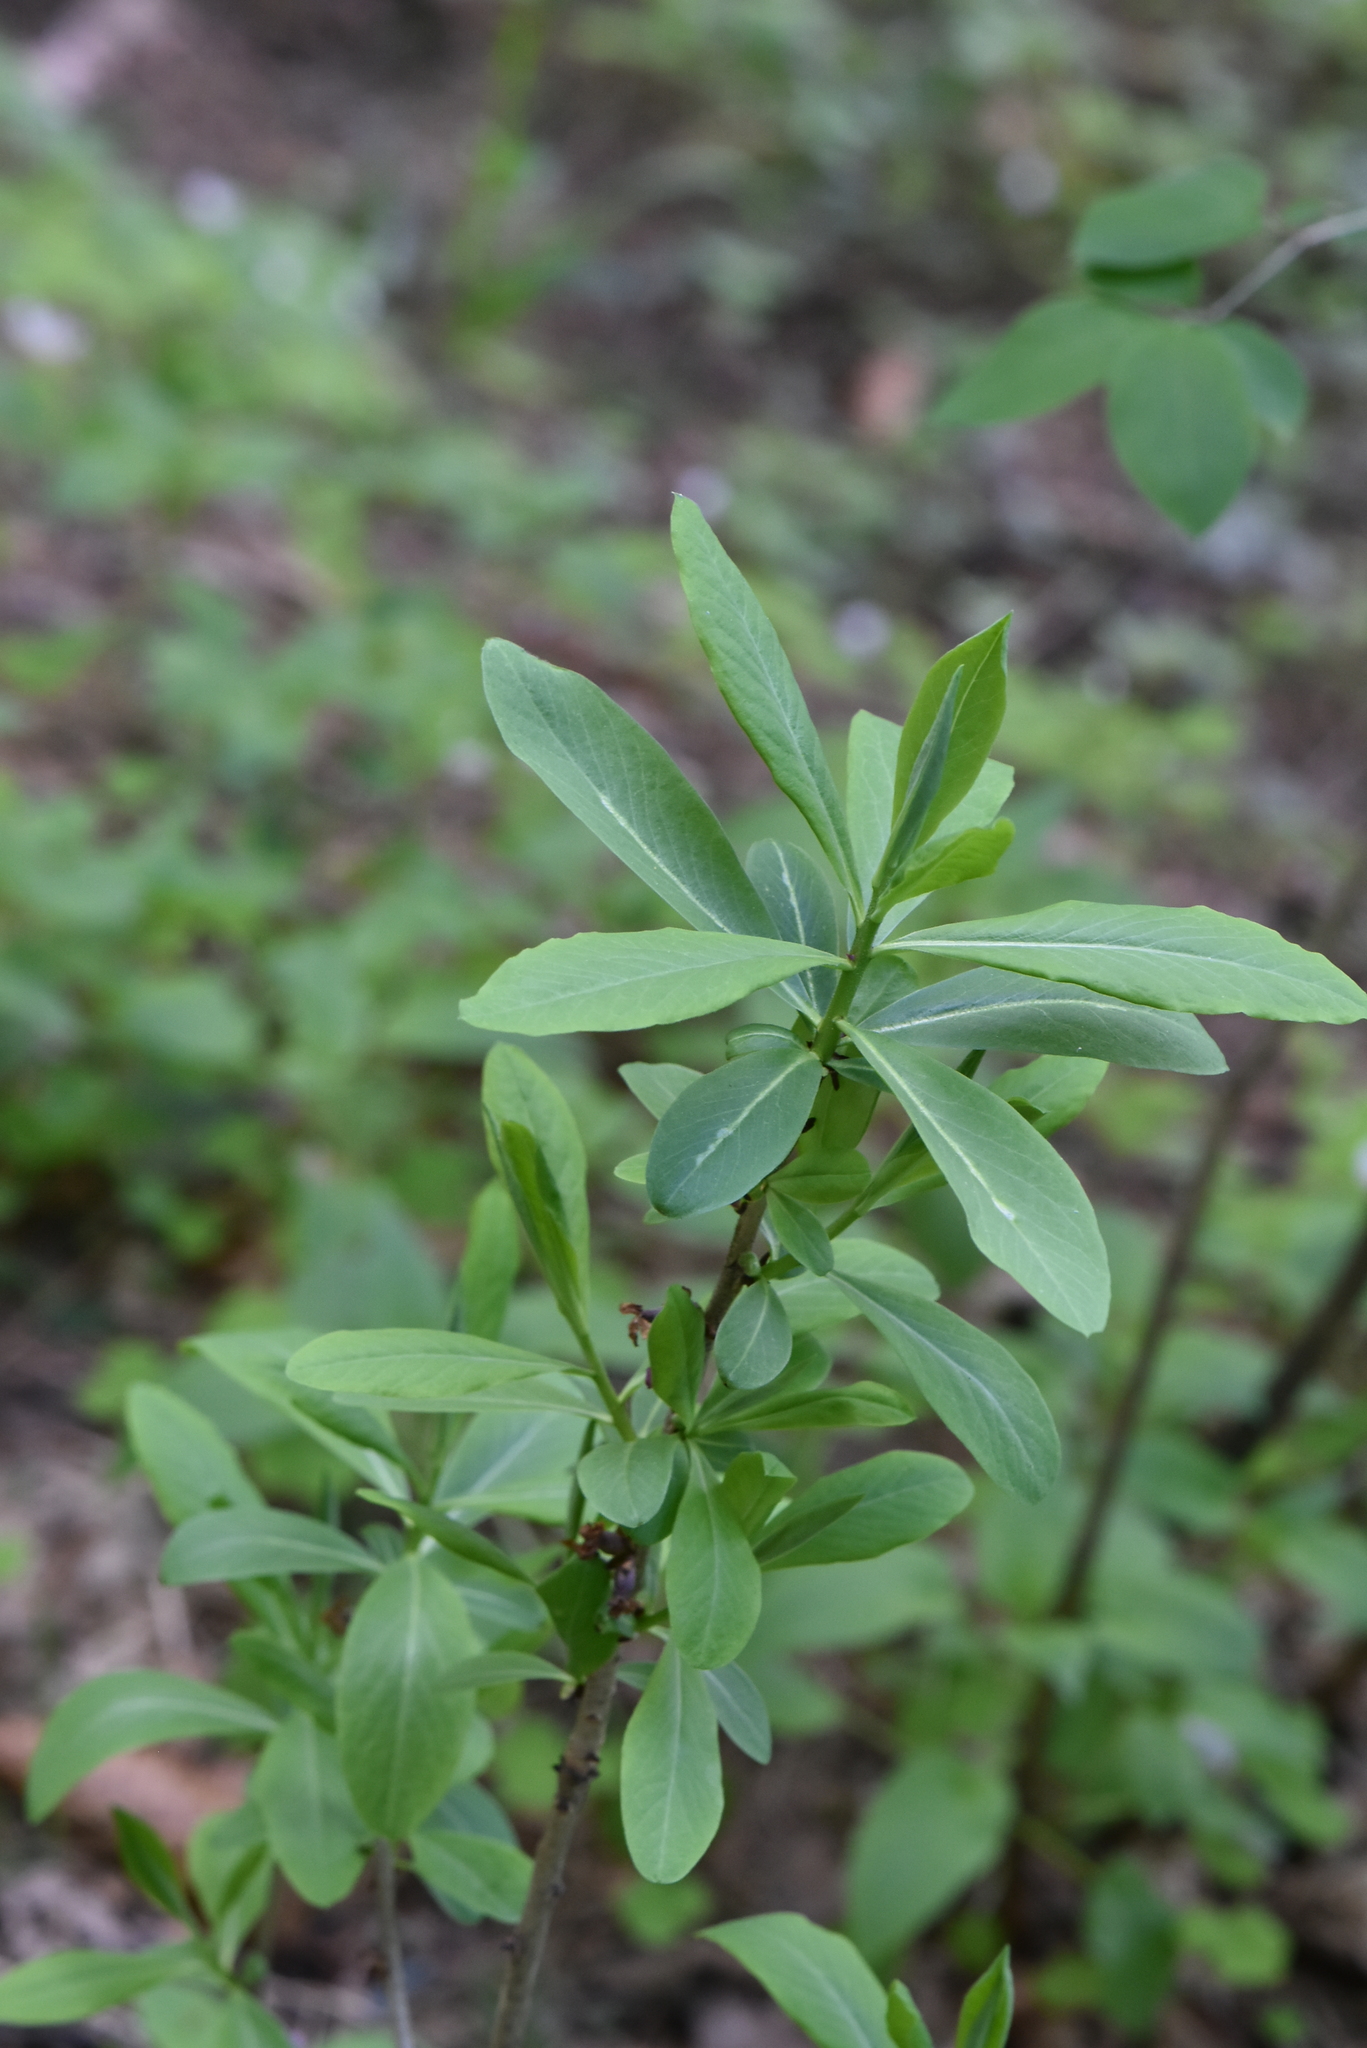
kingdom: Plantae
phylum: Tracheophyta
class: Magnoliopsida
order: Malvales
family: Thymelaeaceae
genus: Daphne
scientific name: Daphne mezereum
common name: Mezereon
